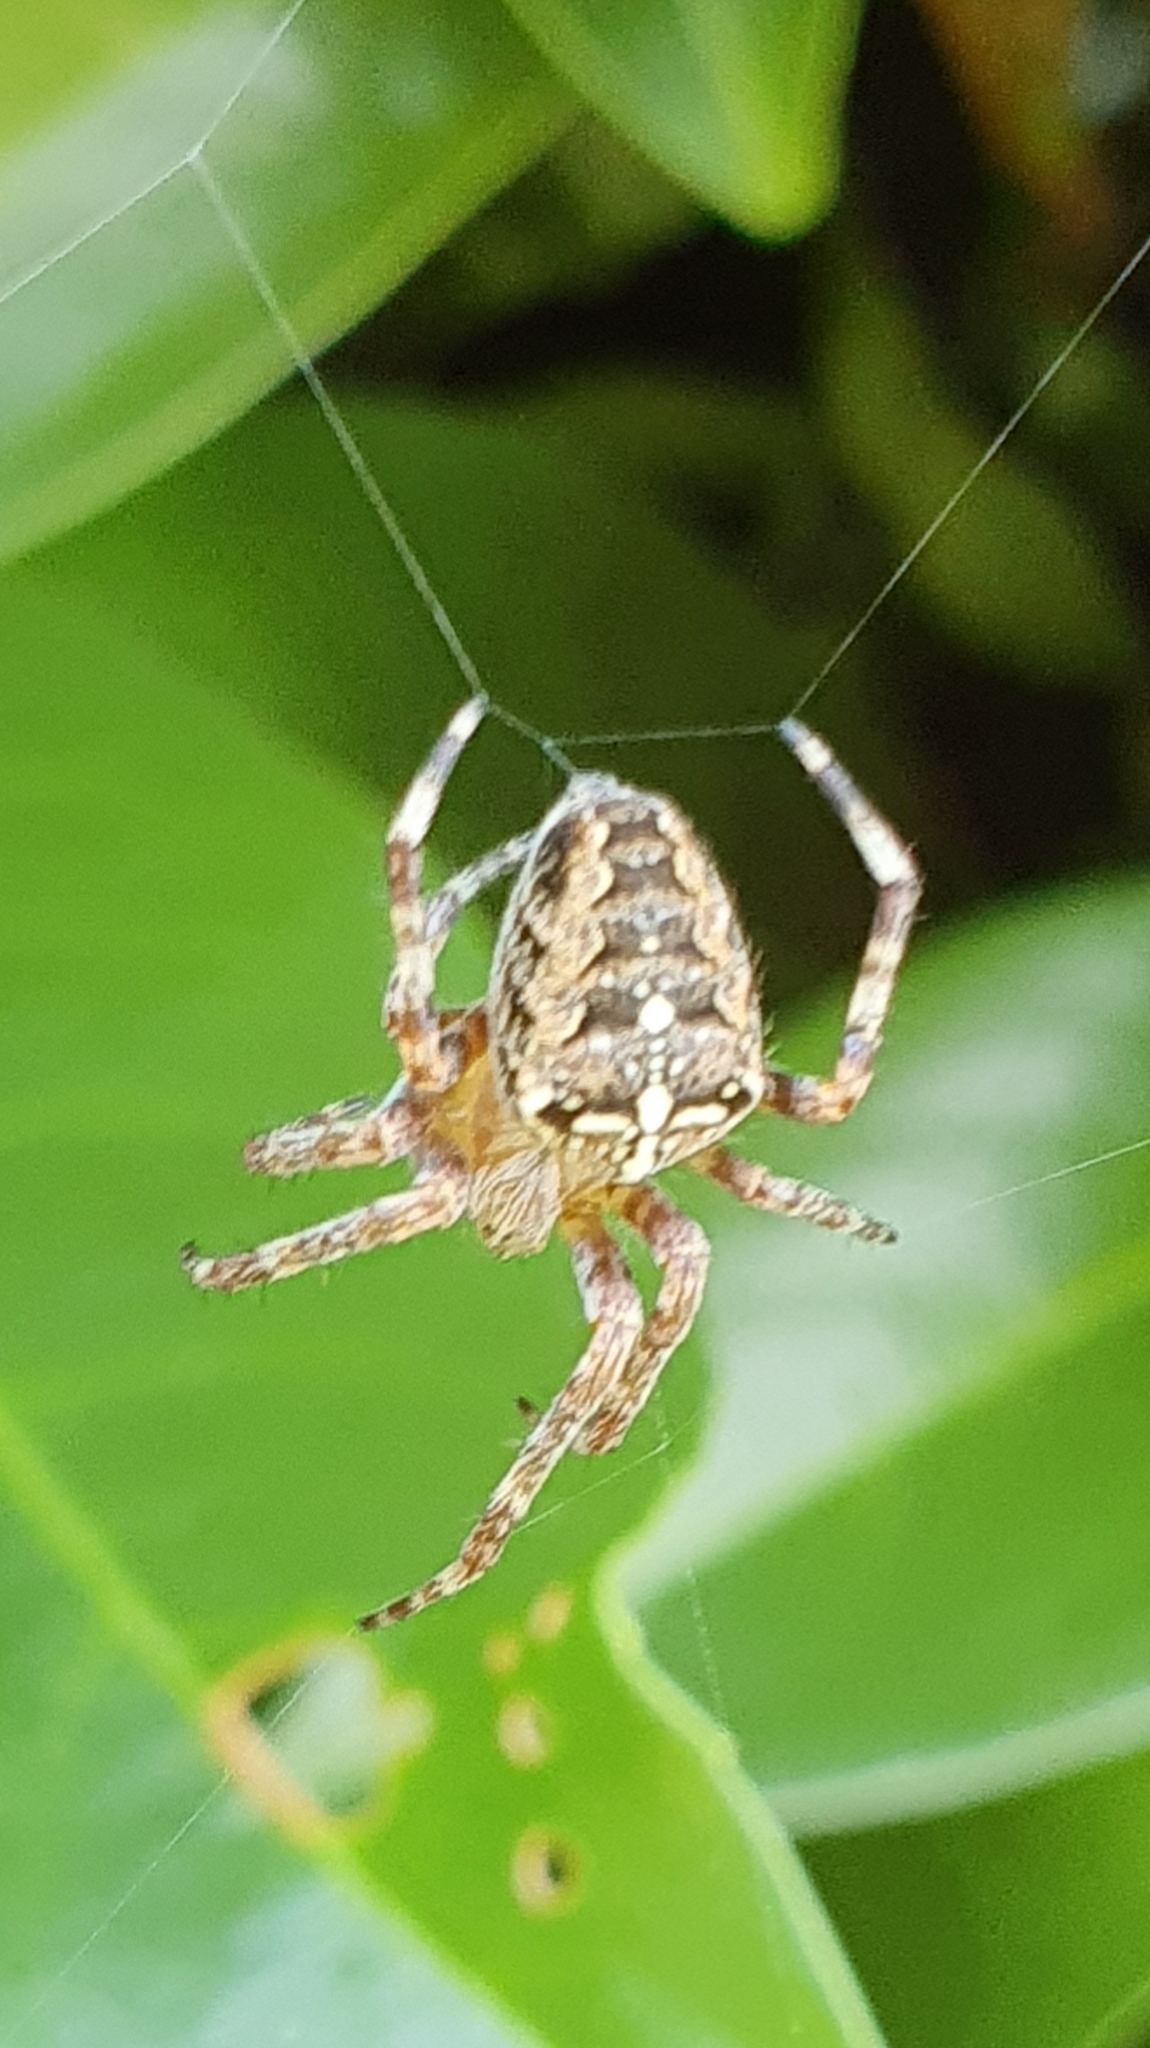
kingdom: Animalia
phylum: Arthropoda
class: Arachnida
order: Araneae
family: Araneidae
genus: Araneus
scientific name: Araneus diadematus
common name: Cross orbweaver
